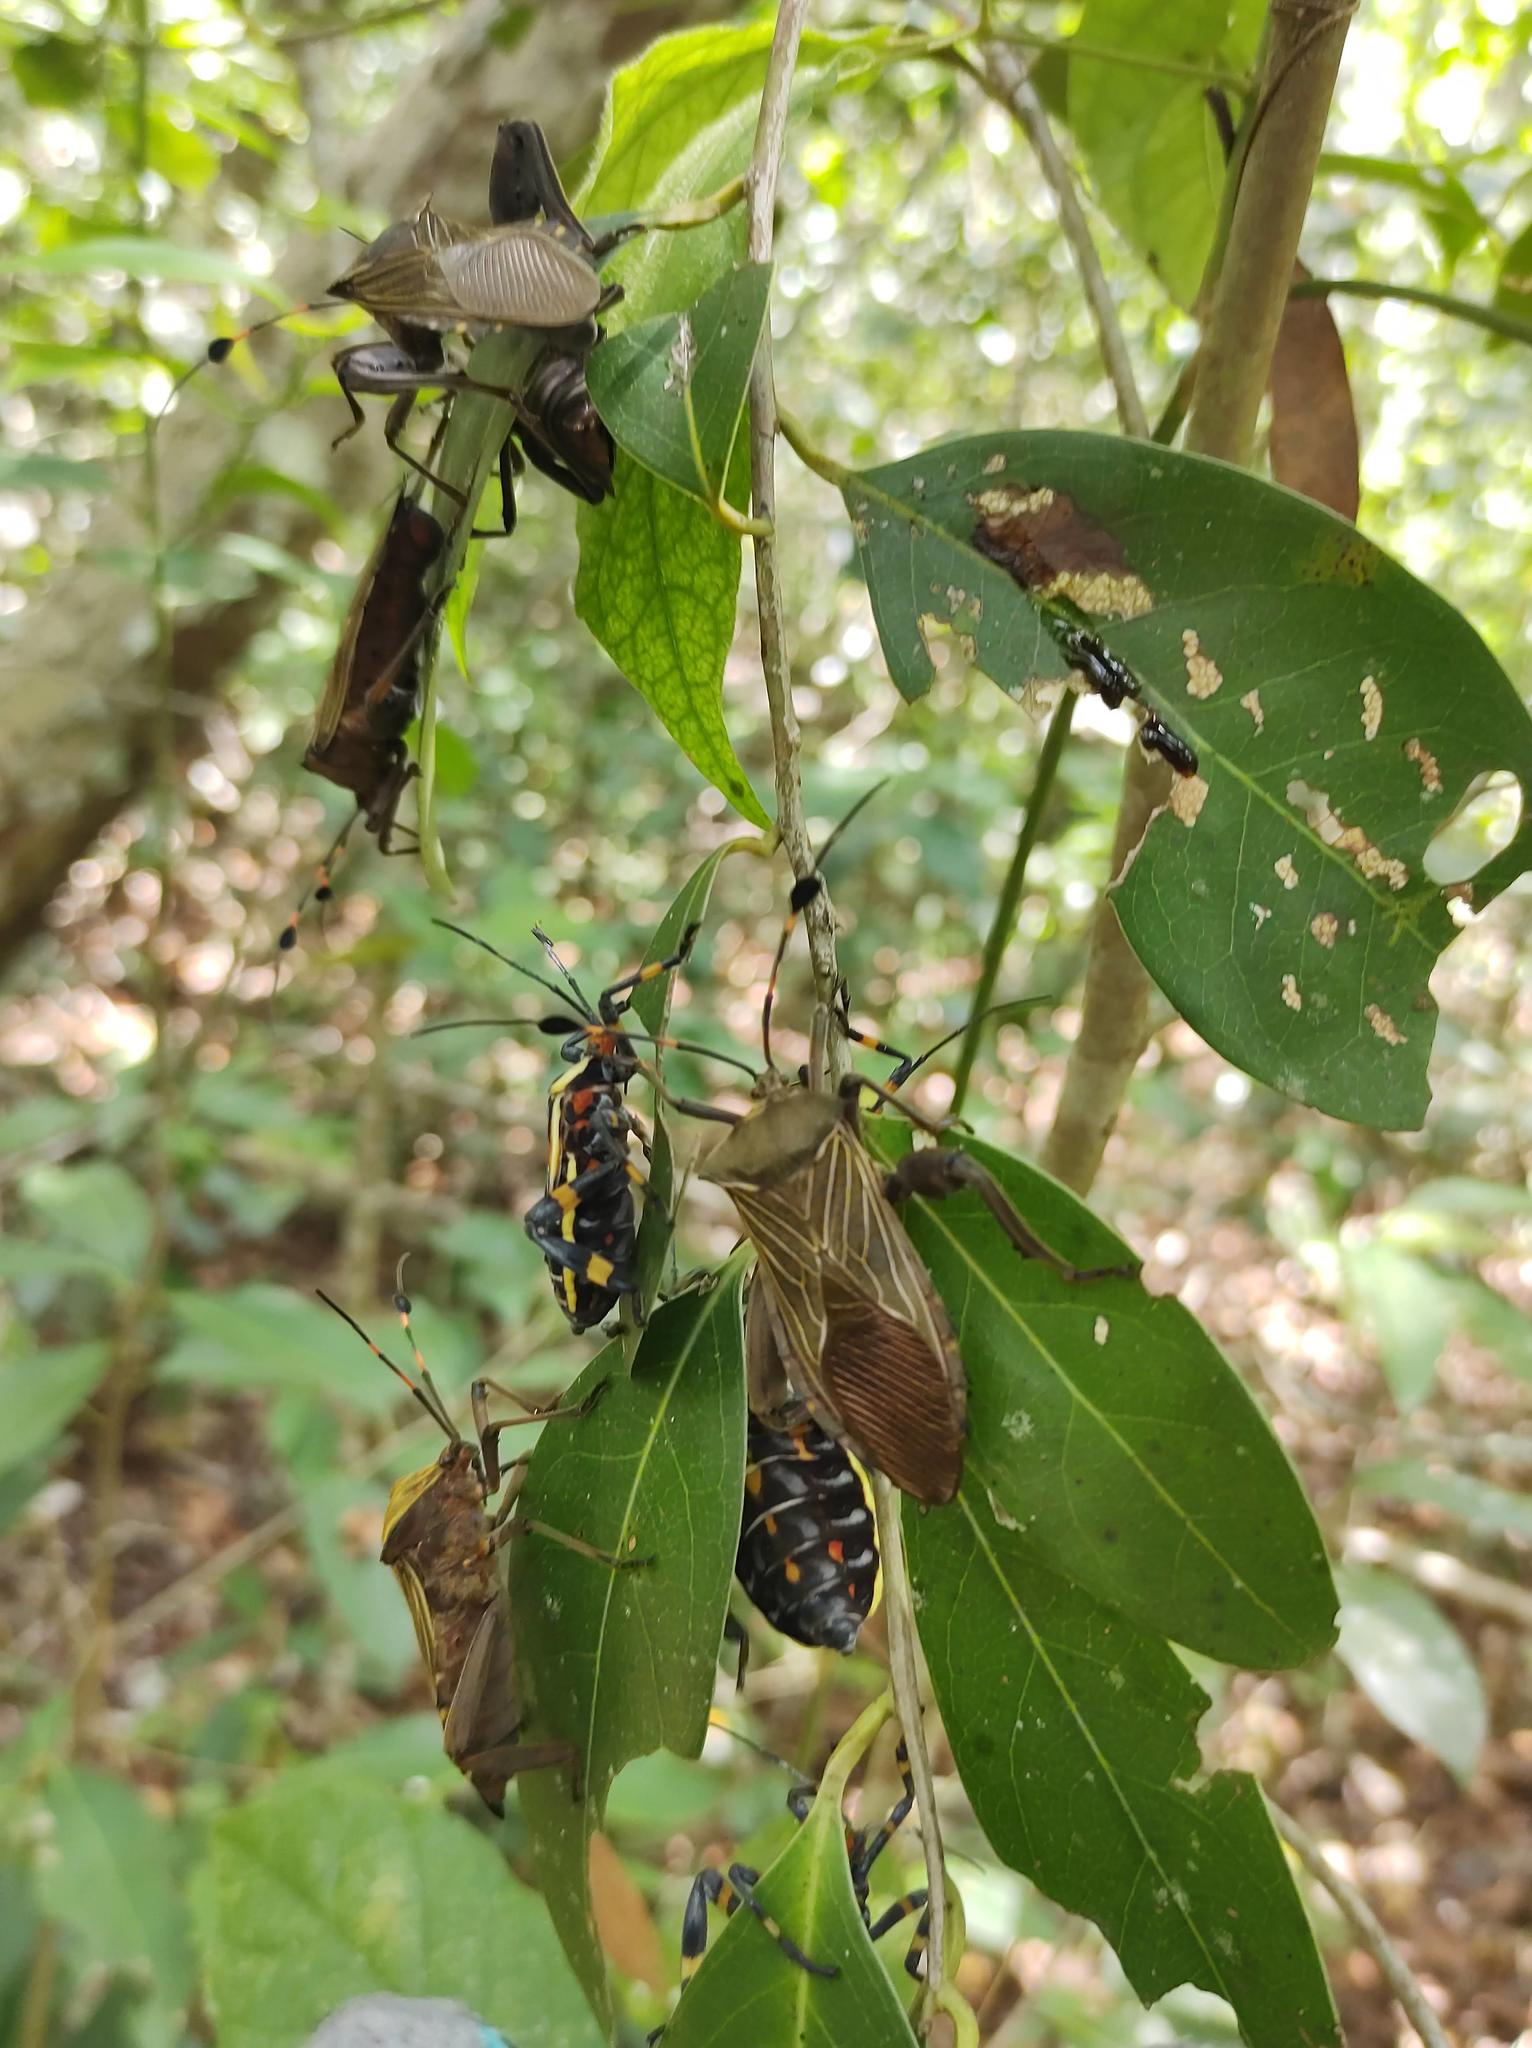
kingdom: Animalia
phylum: Arthropoda
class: Insecta
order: Hemiptera
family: Coreidae
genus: Thasus
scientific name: Thasus acutangulus
